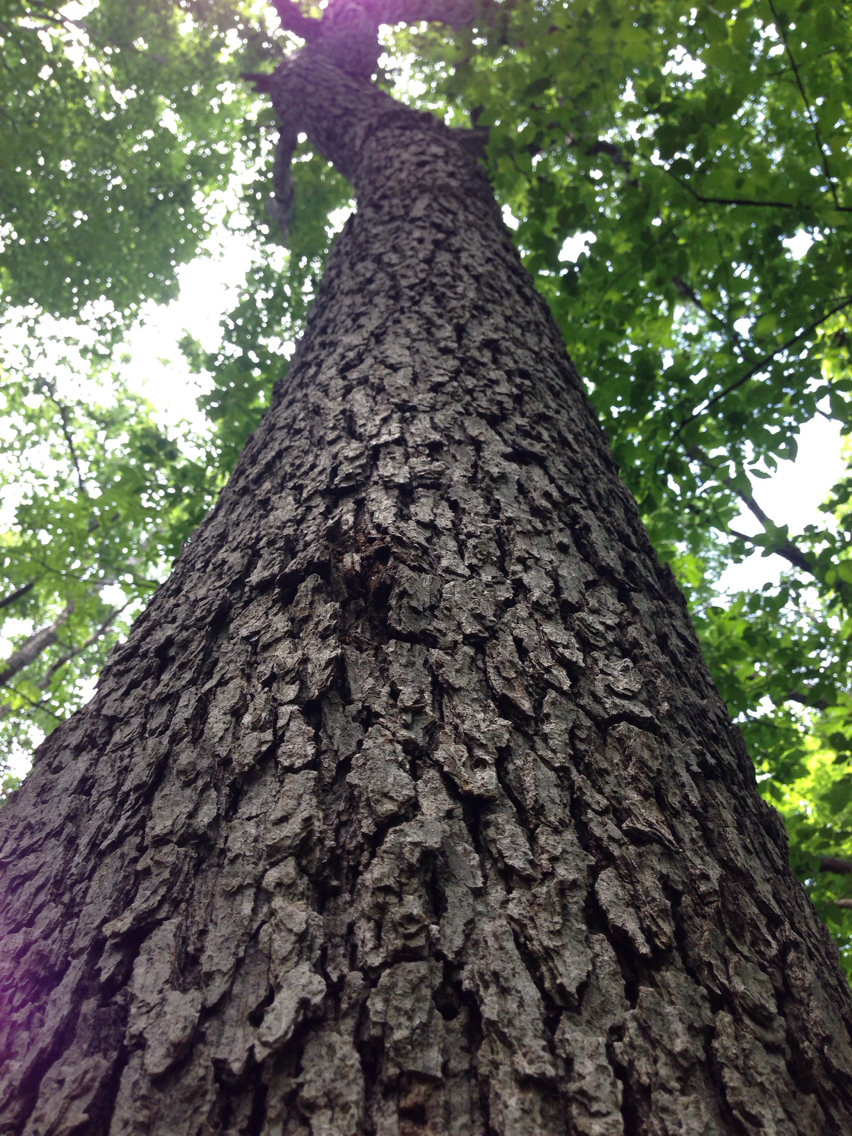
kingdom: Plantae
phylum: Tracheophyta
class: Magnoliopsida
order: Fagales
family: Fagaceae
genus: Quercus
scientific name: Quercus alba
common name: White oak
